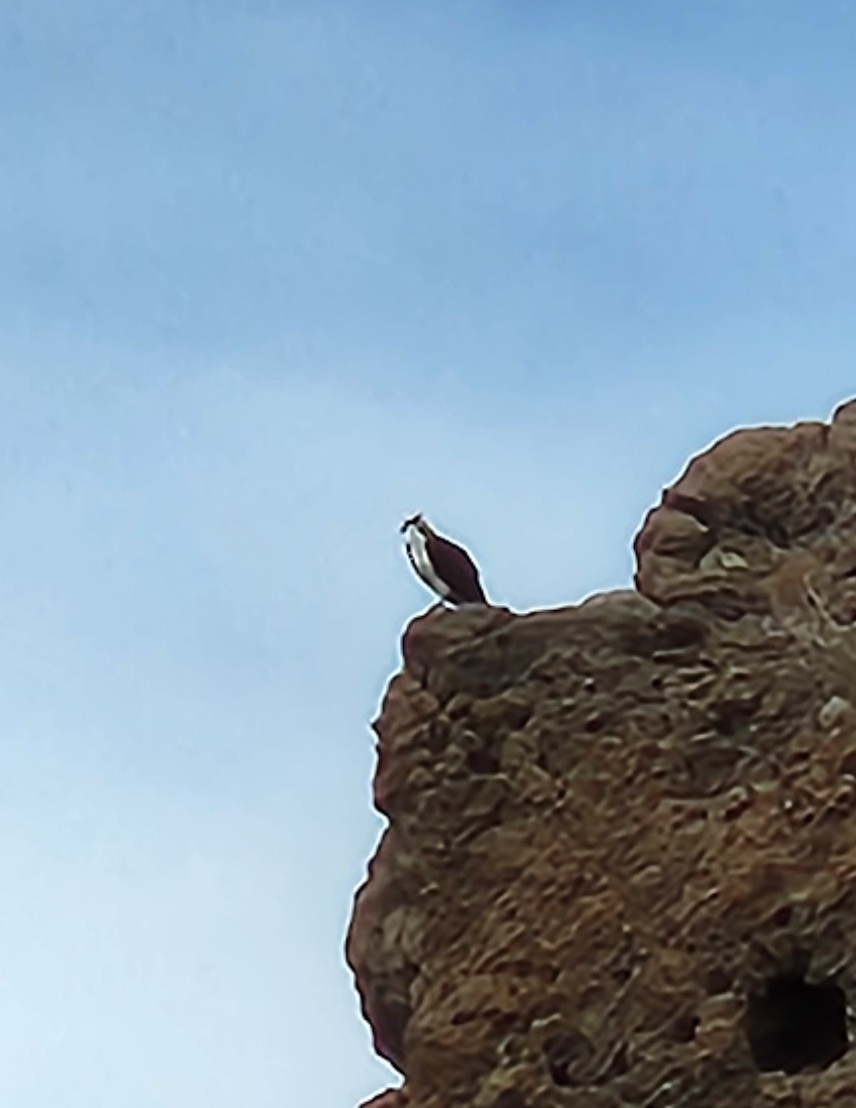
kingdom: Animalia
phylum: Chordata
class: Aves
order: Accipitriformes
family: Pandionidae
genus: Pandion
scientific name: Pandion haliaetus
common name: Osprey
